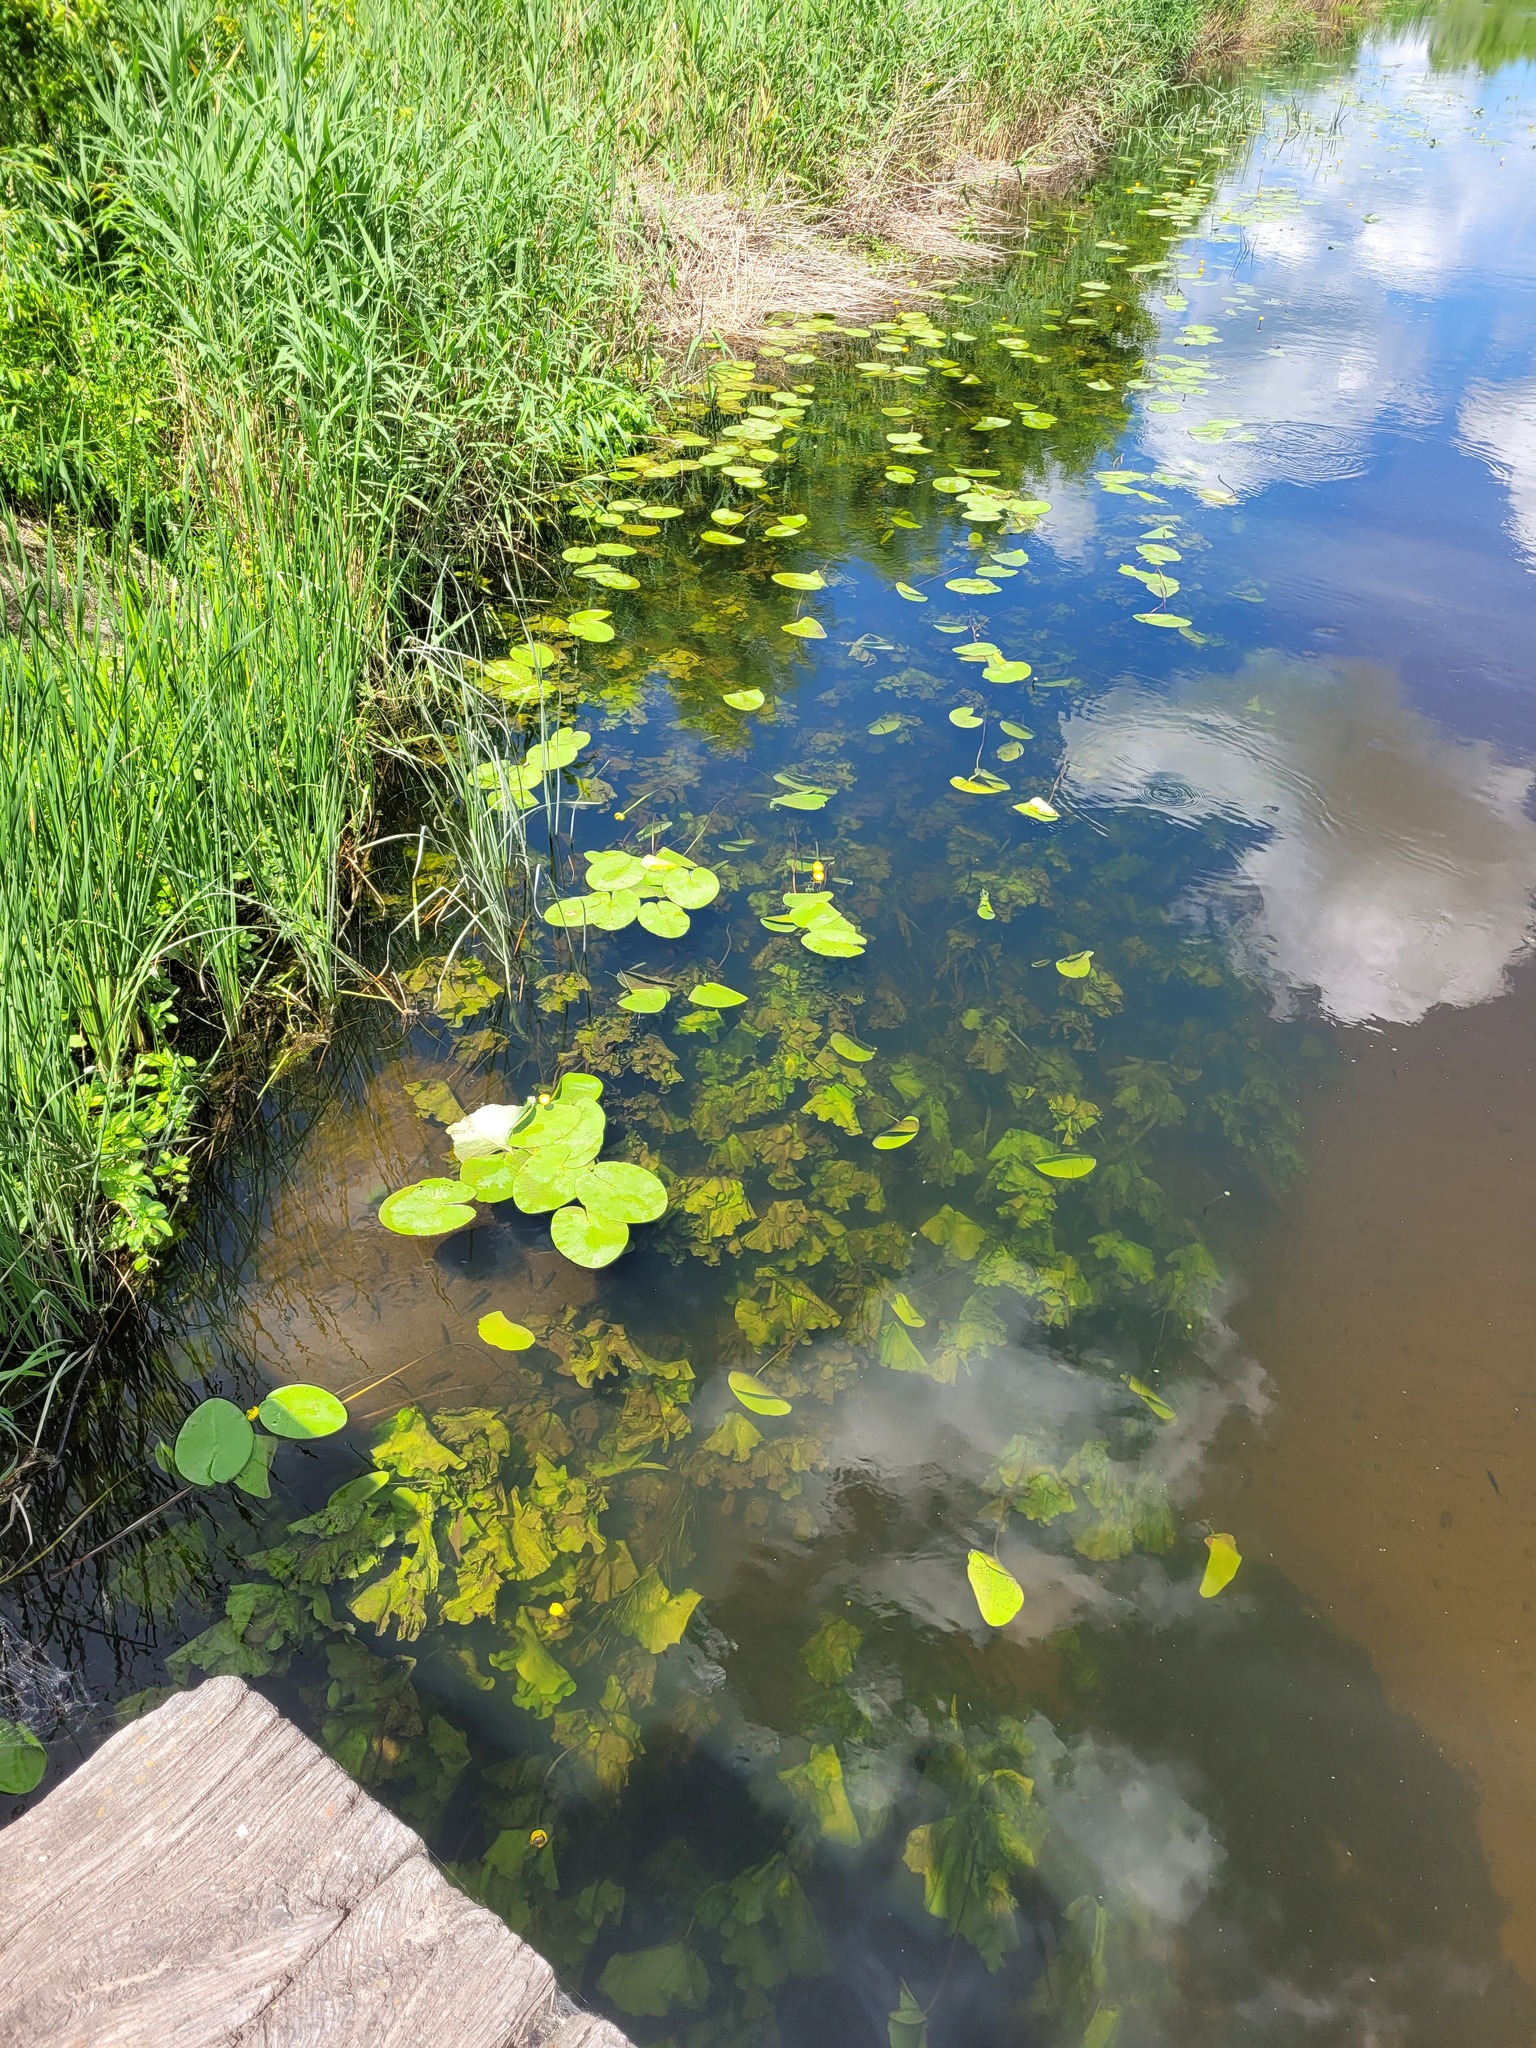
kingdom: Plantae
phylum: Tracheophyta
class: Magnoliopsida
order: Nymphaeales
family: Nymphaeaceae
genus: Nuphar
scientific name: Nuphar lutea
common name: Yellow water-lily
